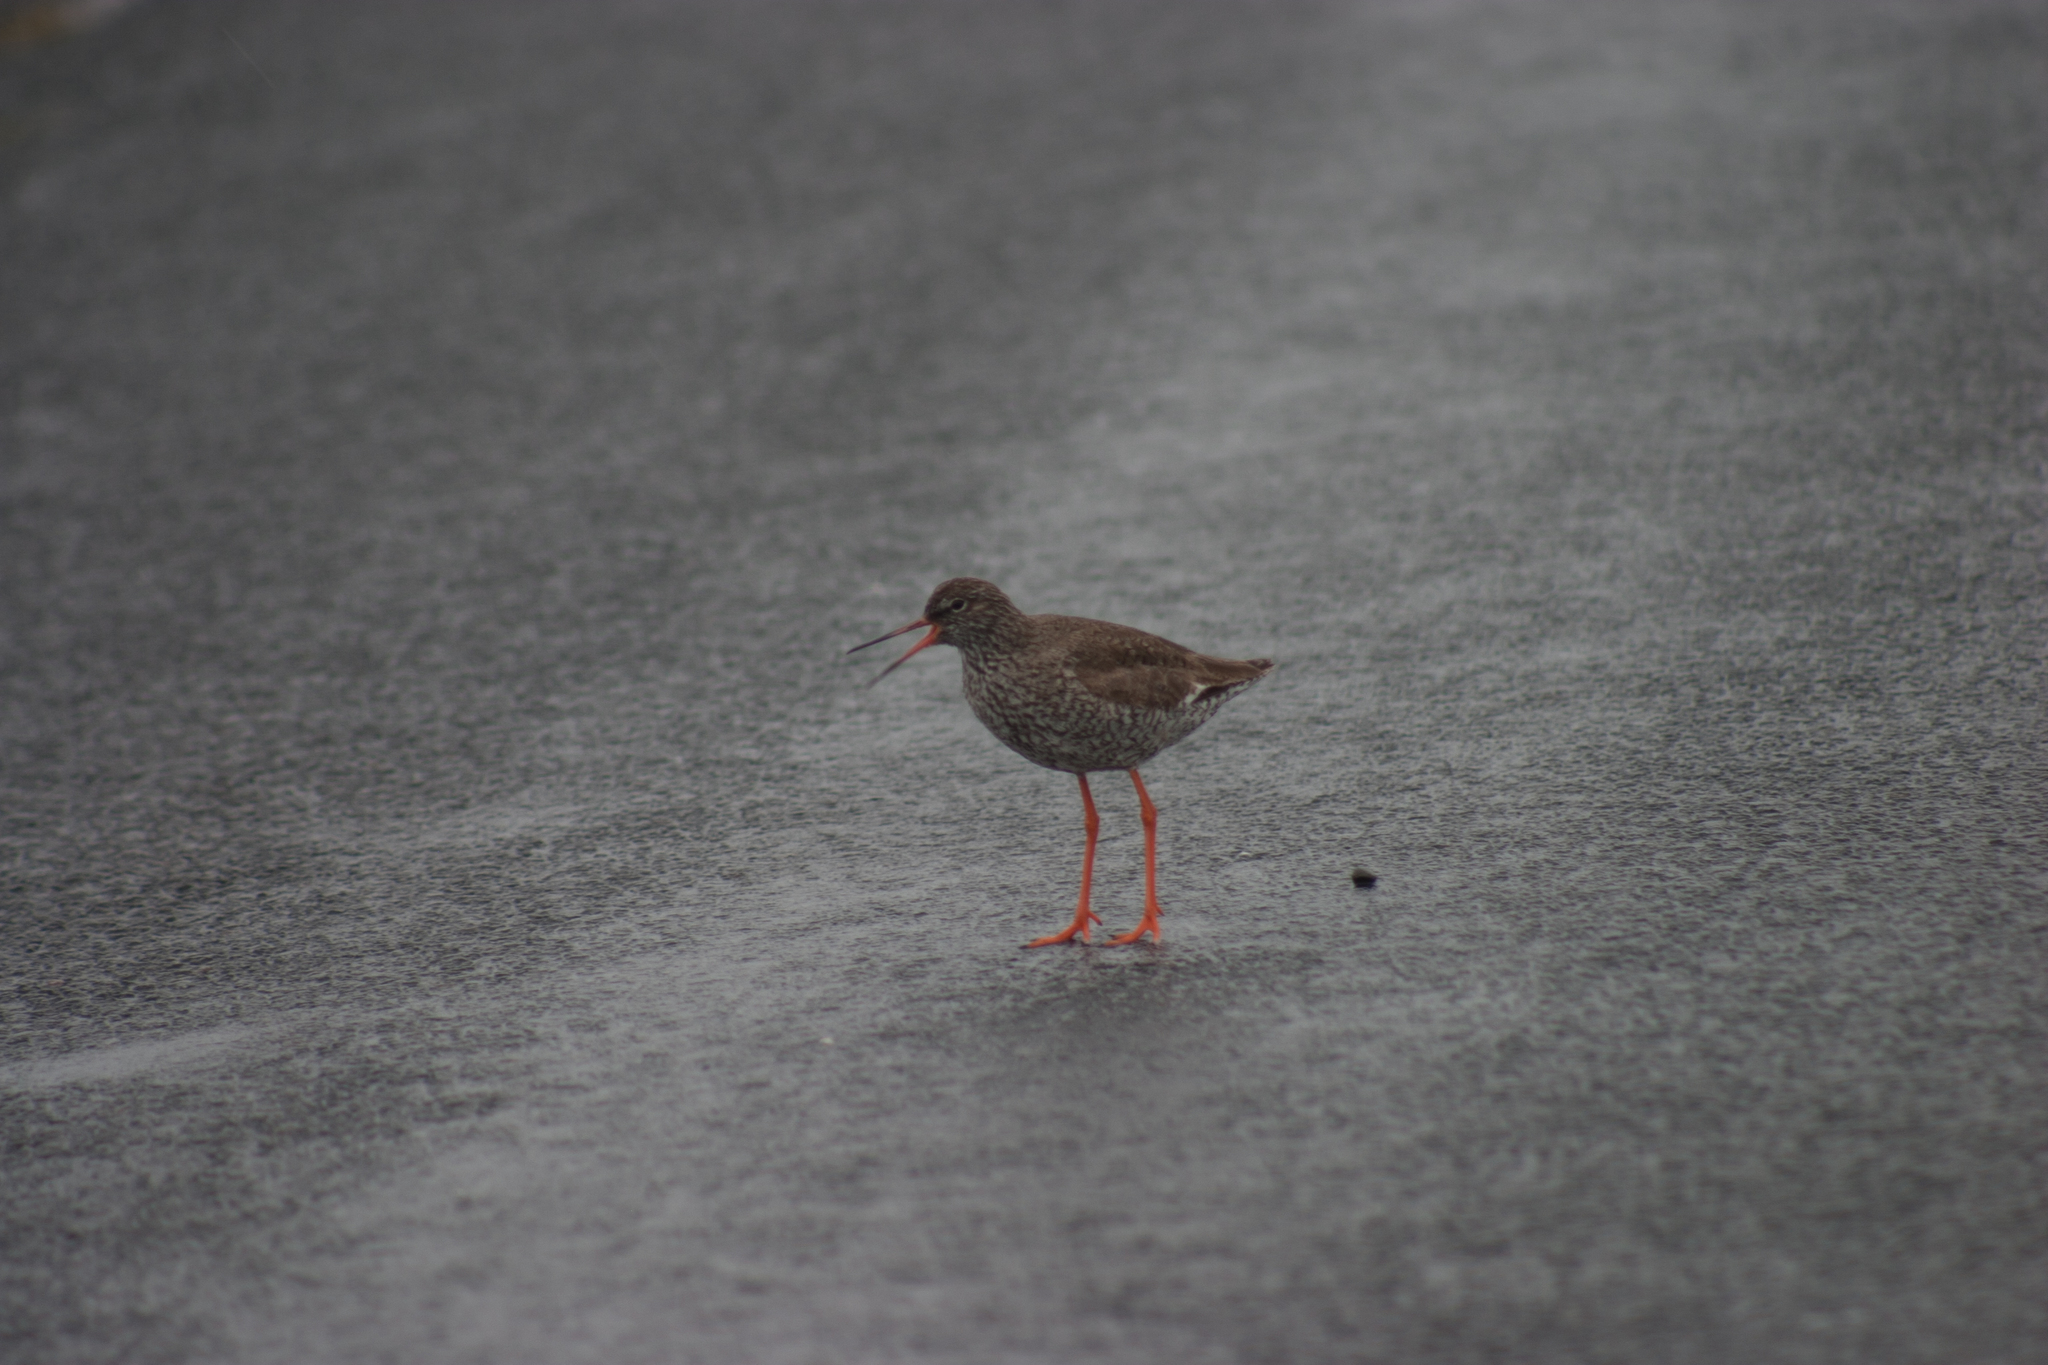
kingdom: Animalia
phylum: Chordata
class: Aves
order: Charadriiformes
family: Scolopacidae
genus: Tringa
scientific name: Tringa totanus
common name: Common redshank
